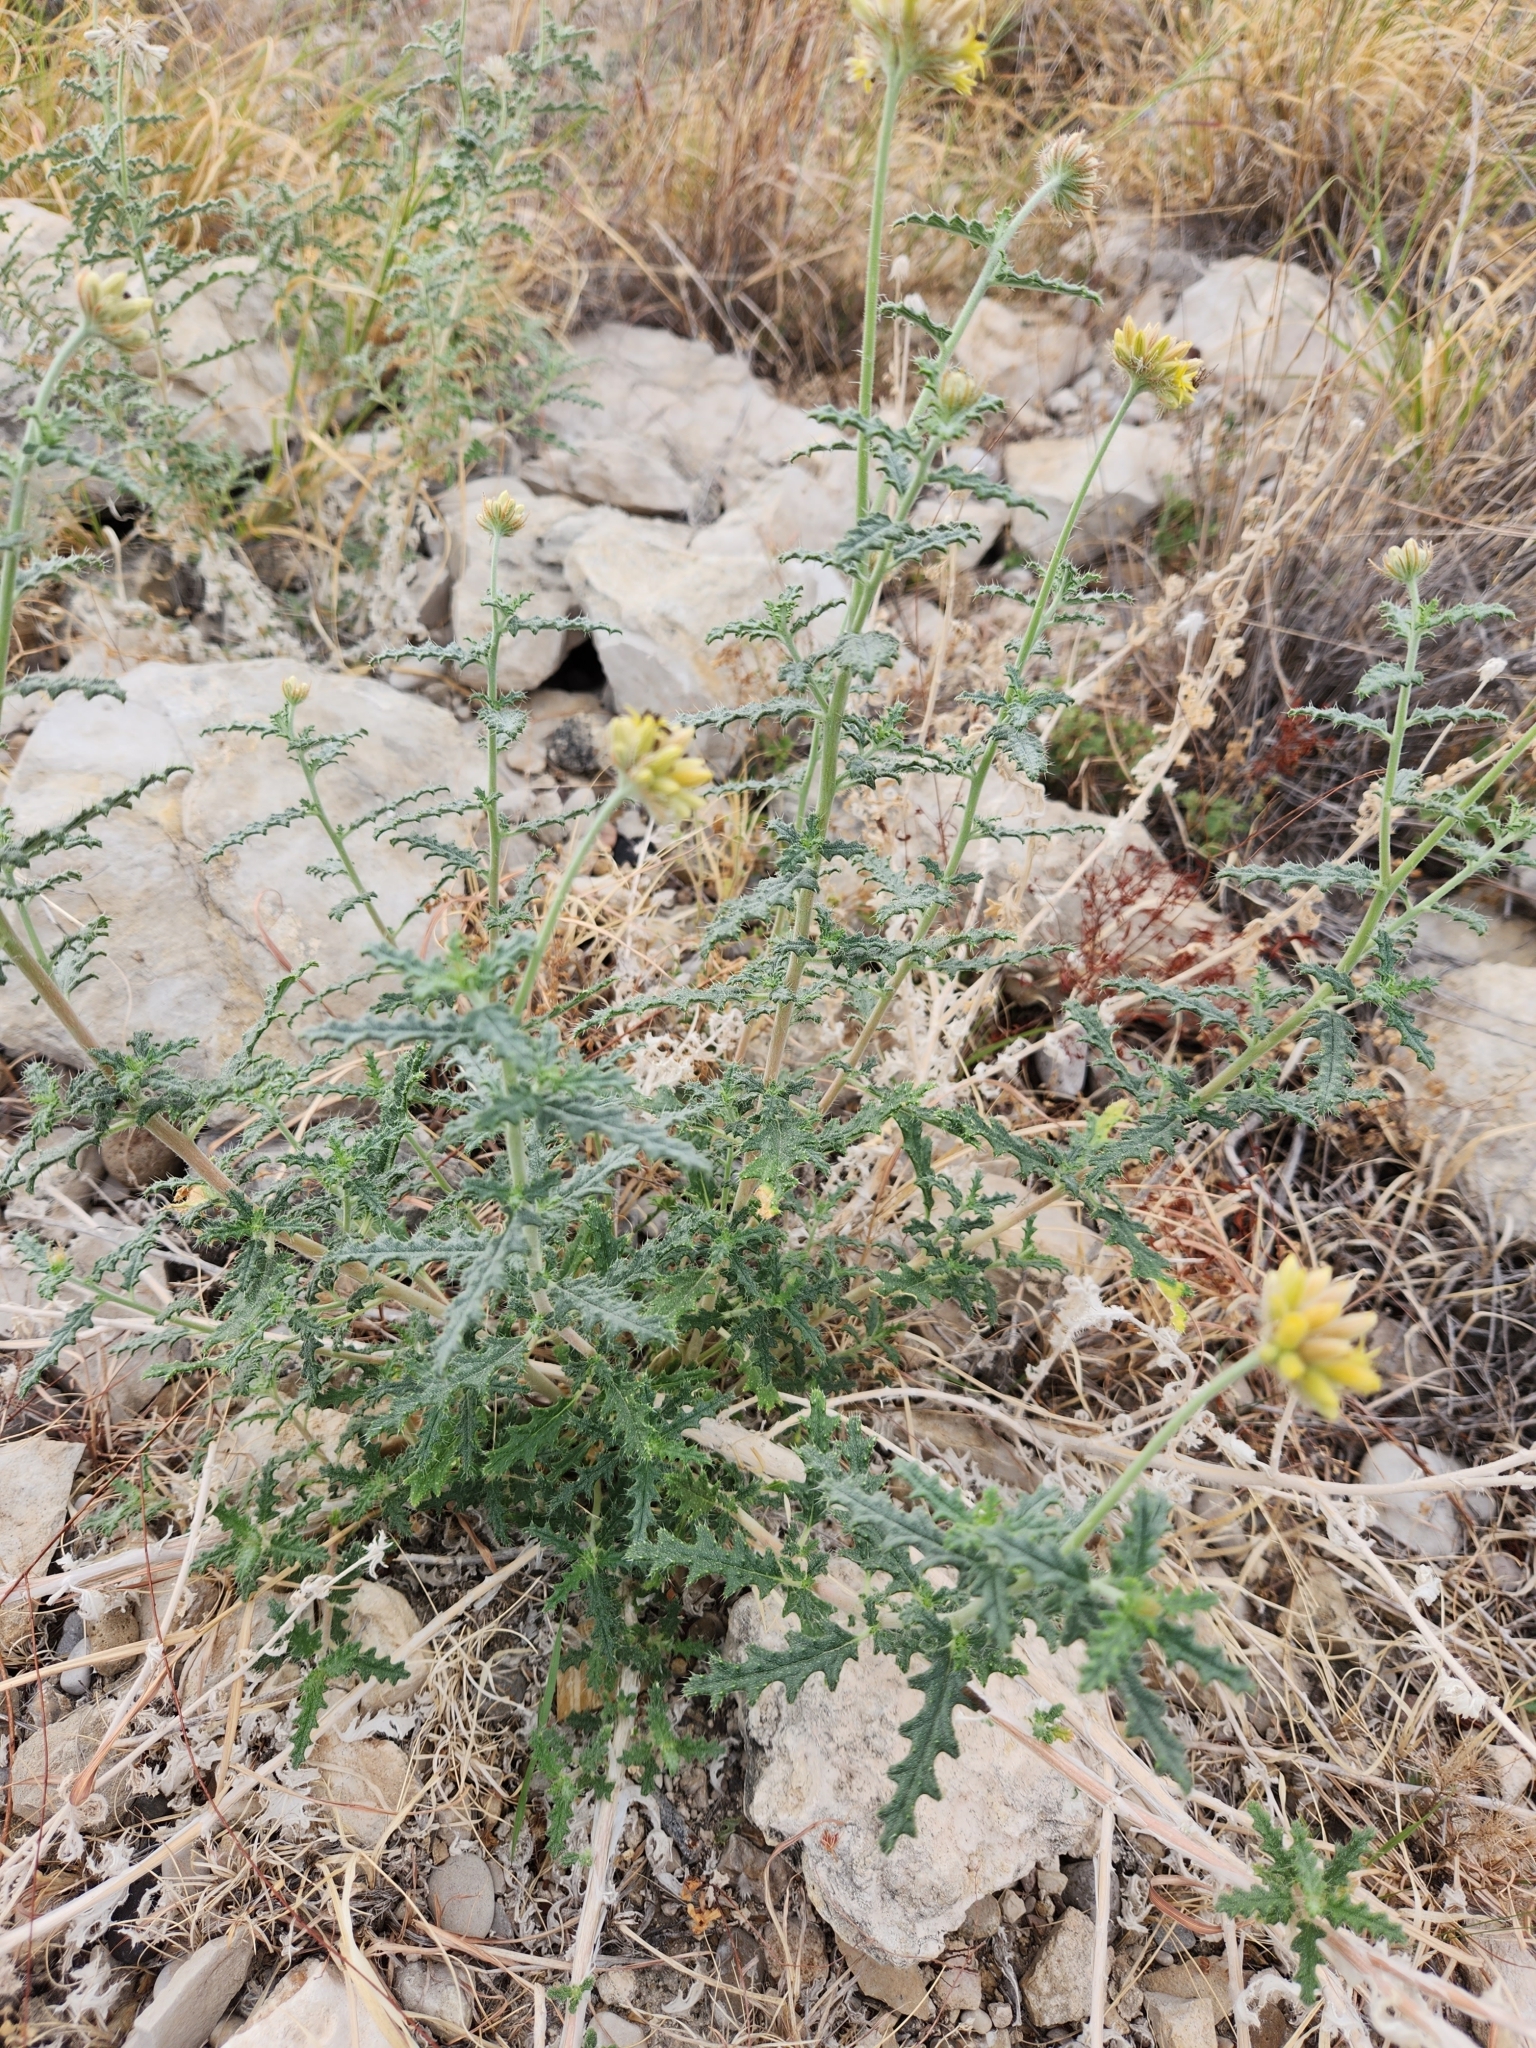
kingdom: Plantae
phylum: Tracheophyta
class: Magnoliopsida
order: Cornales
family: Loasaceae
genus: Cevallia
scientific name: Cevallia sinuata
